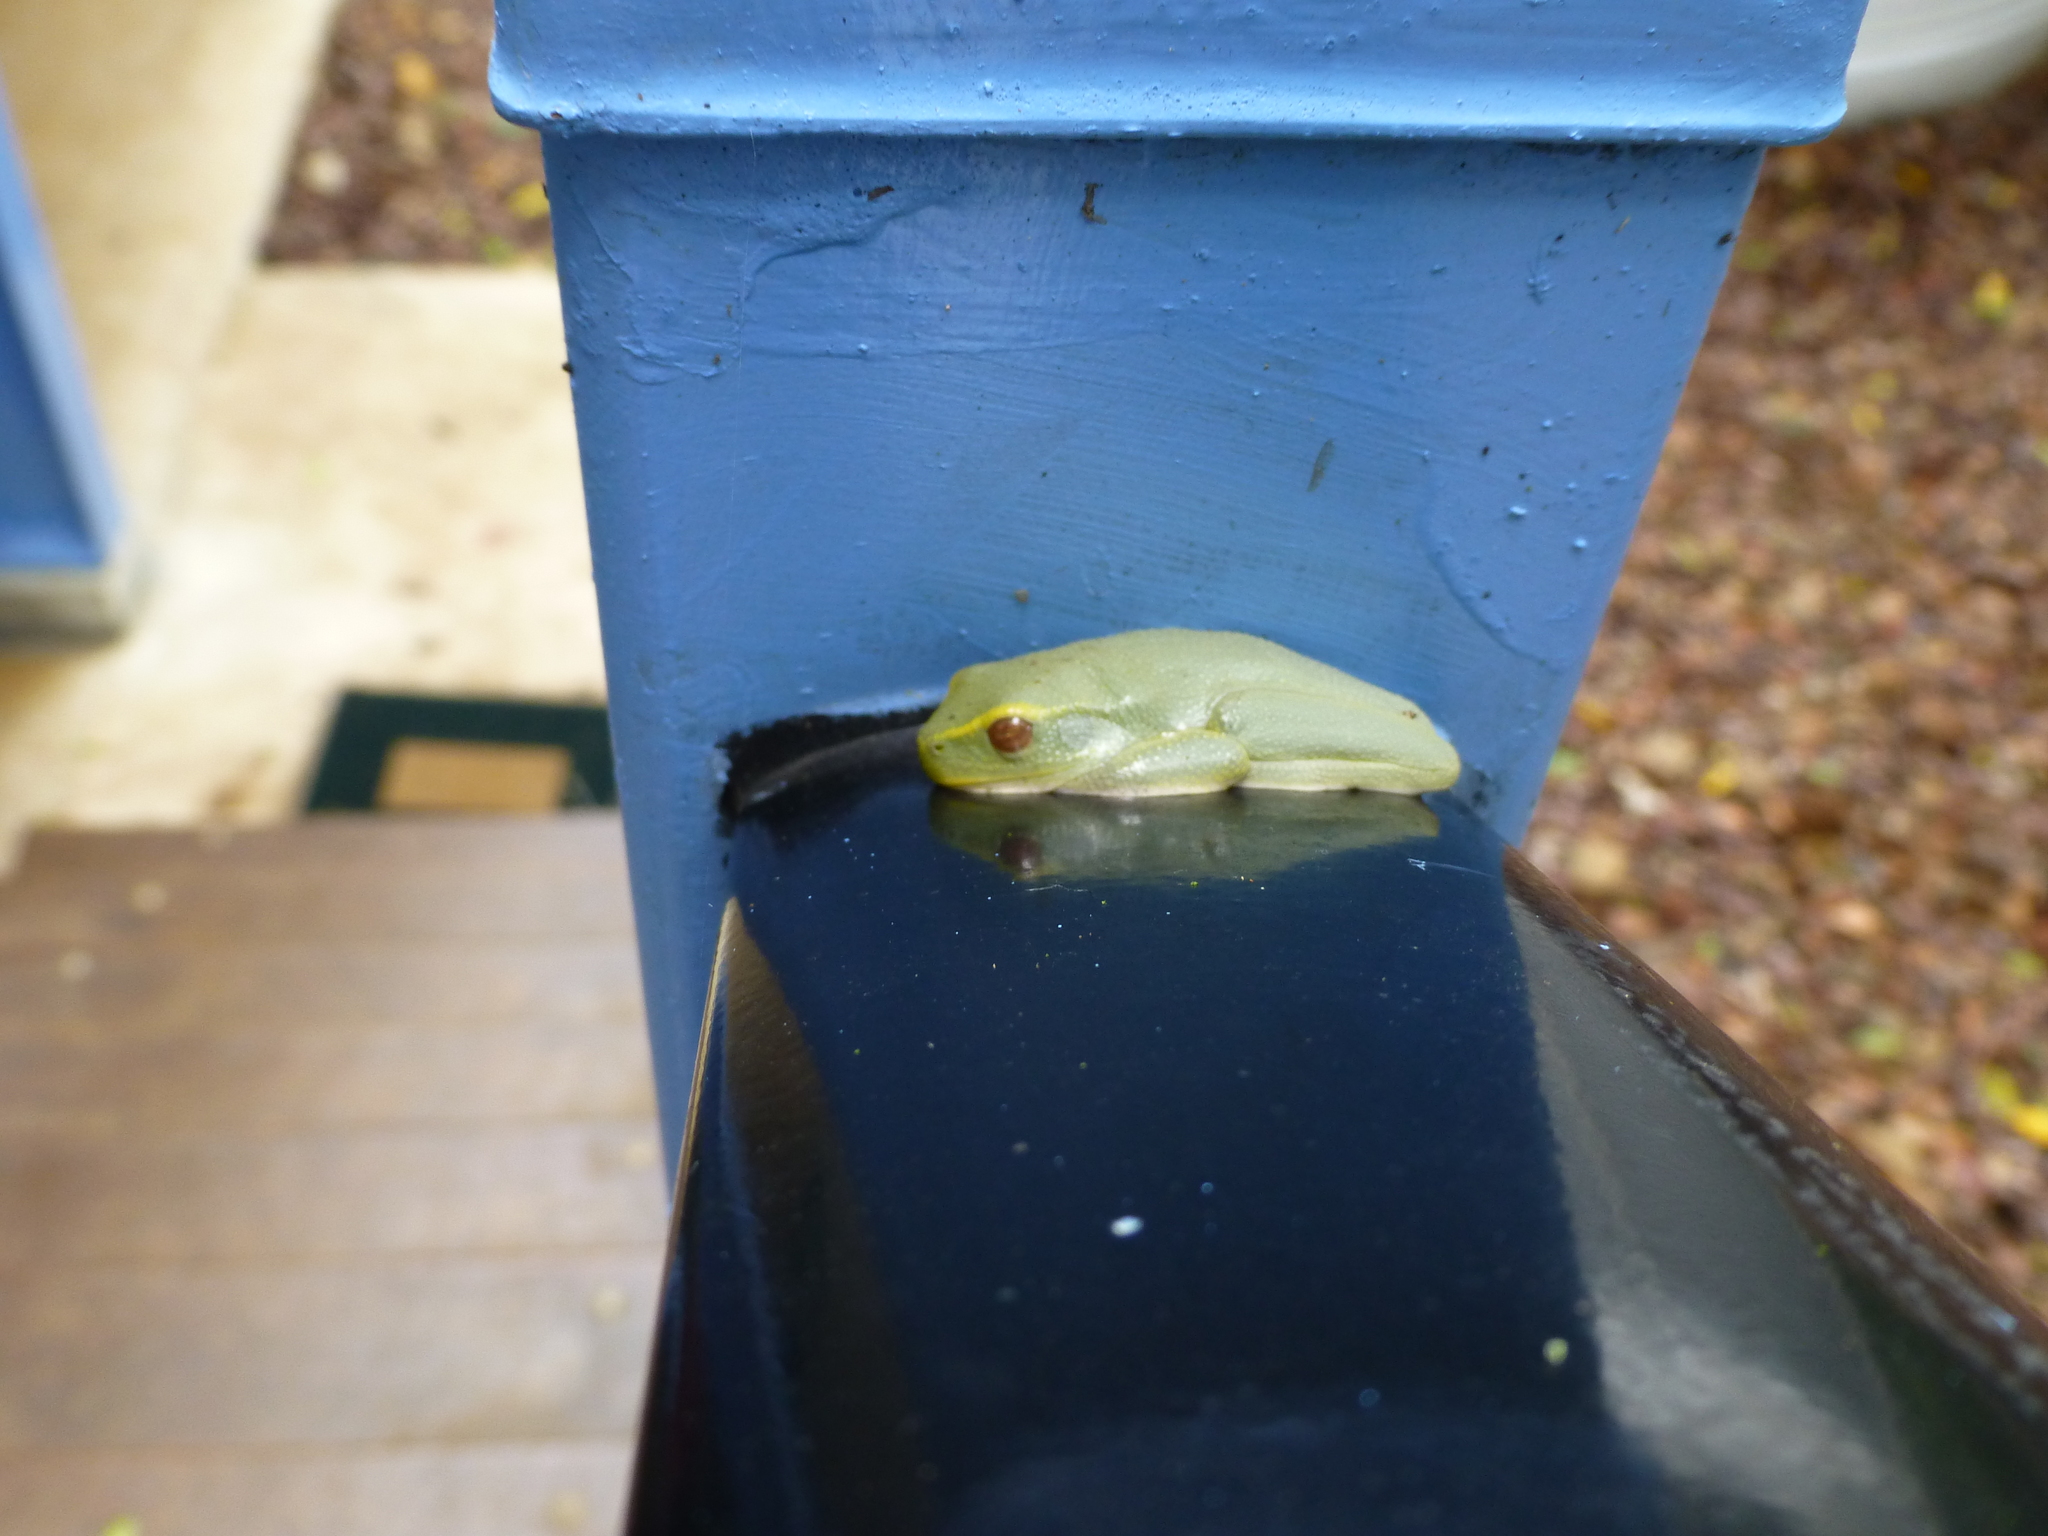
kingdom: Animalia
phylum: Chordata
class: Amphibia
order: Anura
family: Pelodryadidae
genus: Ranoidea
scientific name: Ranoidea gracilenta
